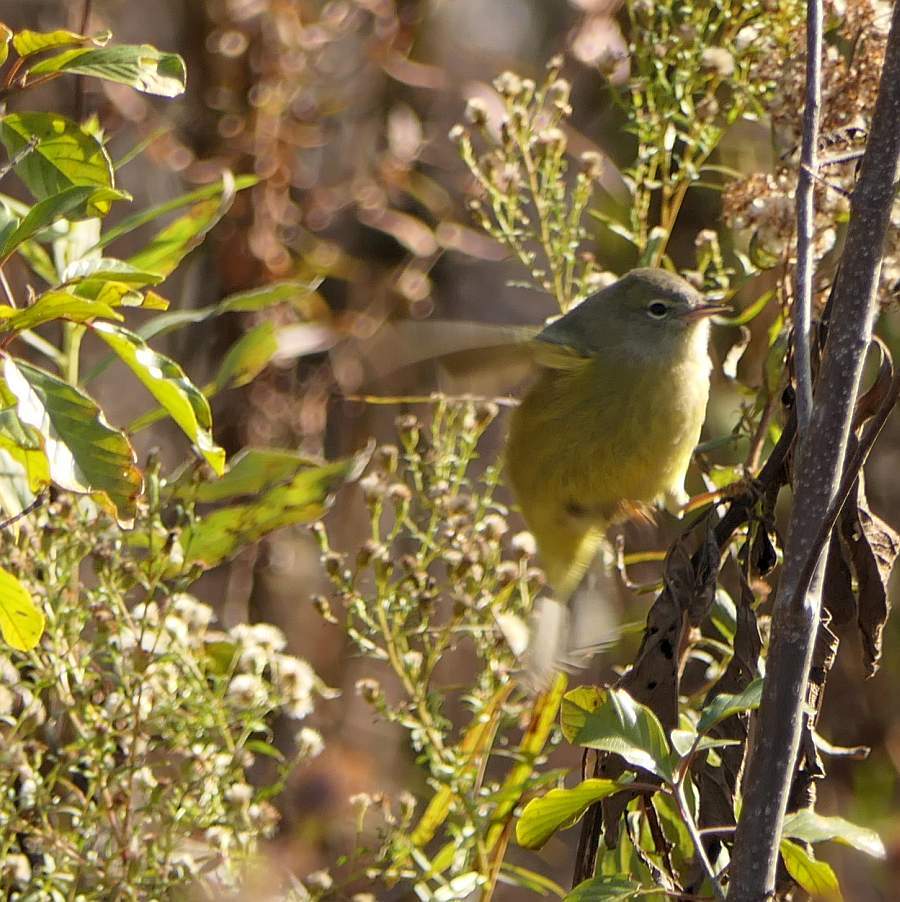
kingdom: Animalia
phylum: Chordata
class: Aves
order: Passeriformes
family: Parulidae
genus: Leiothlypis
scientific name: Leiothlypis celata
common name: Orange-crowned warbler
